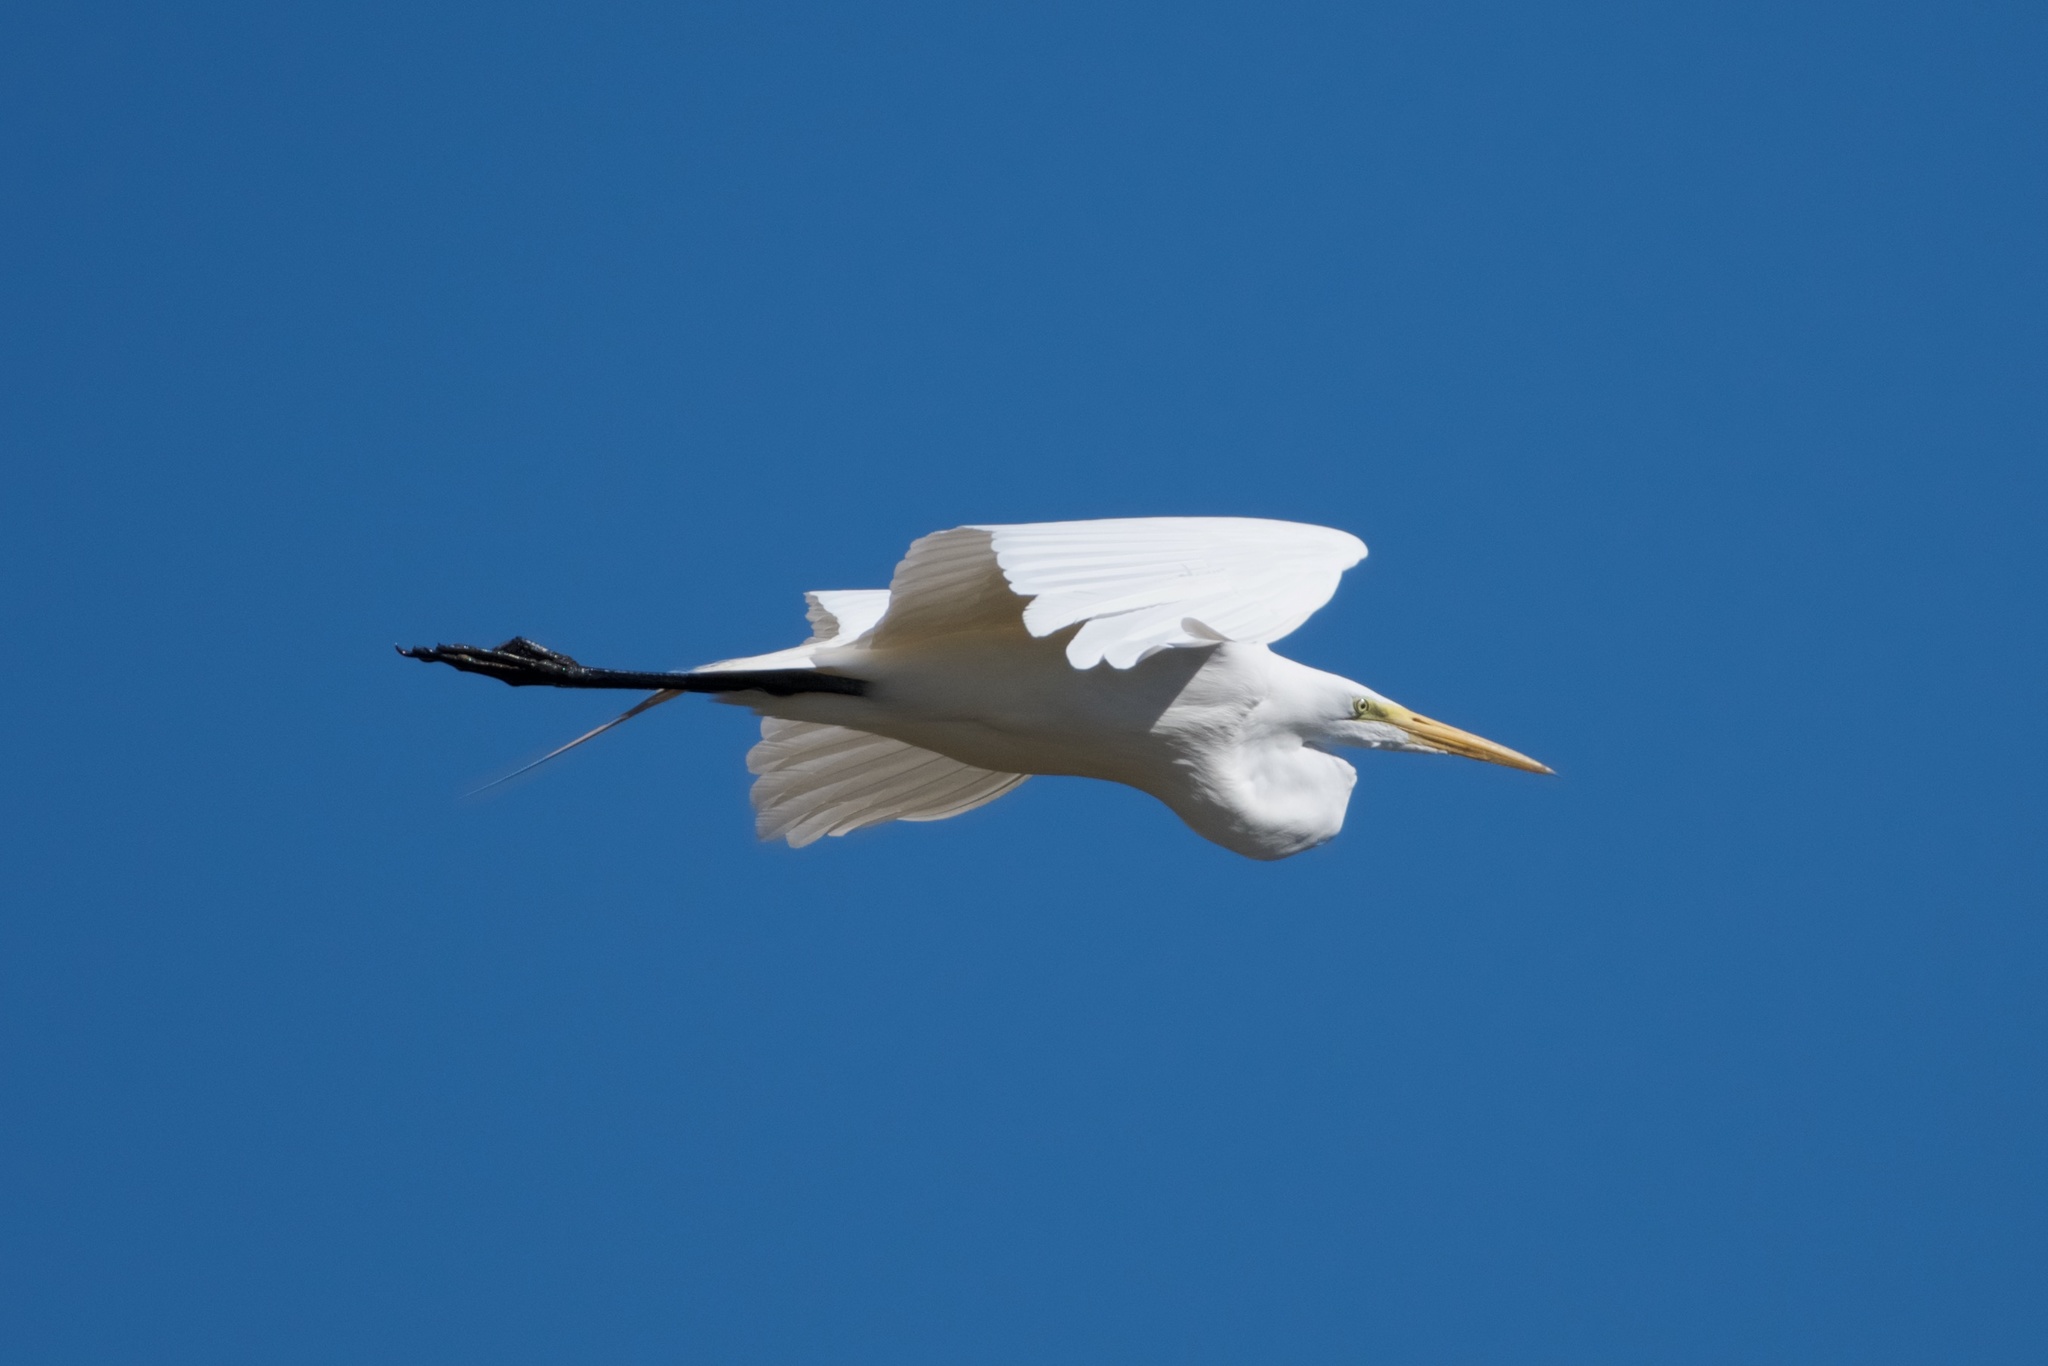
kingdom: Animalia
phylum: Chordata
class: Aves
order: Pelecaniformes
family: Ardeidae
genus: Ardea
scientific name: Ardea alba
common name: Great egret
